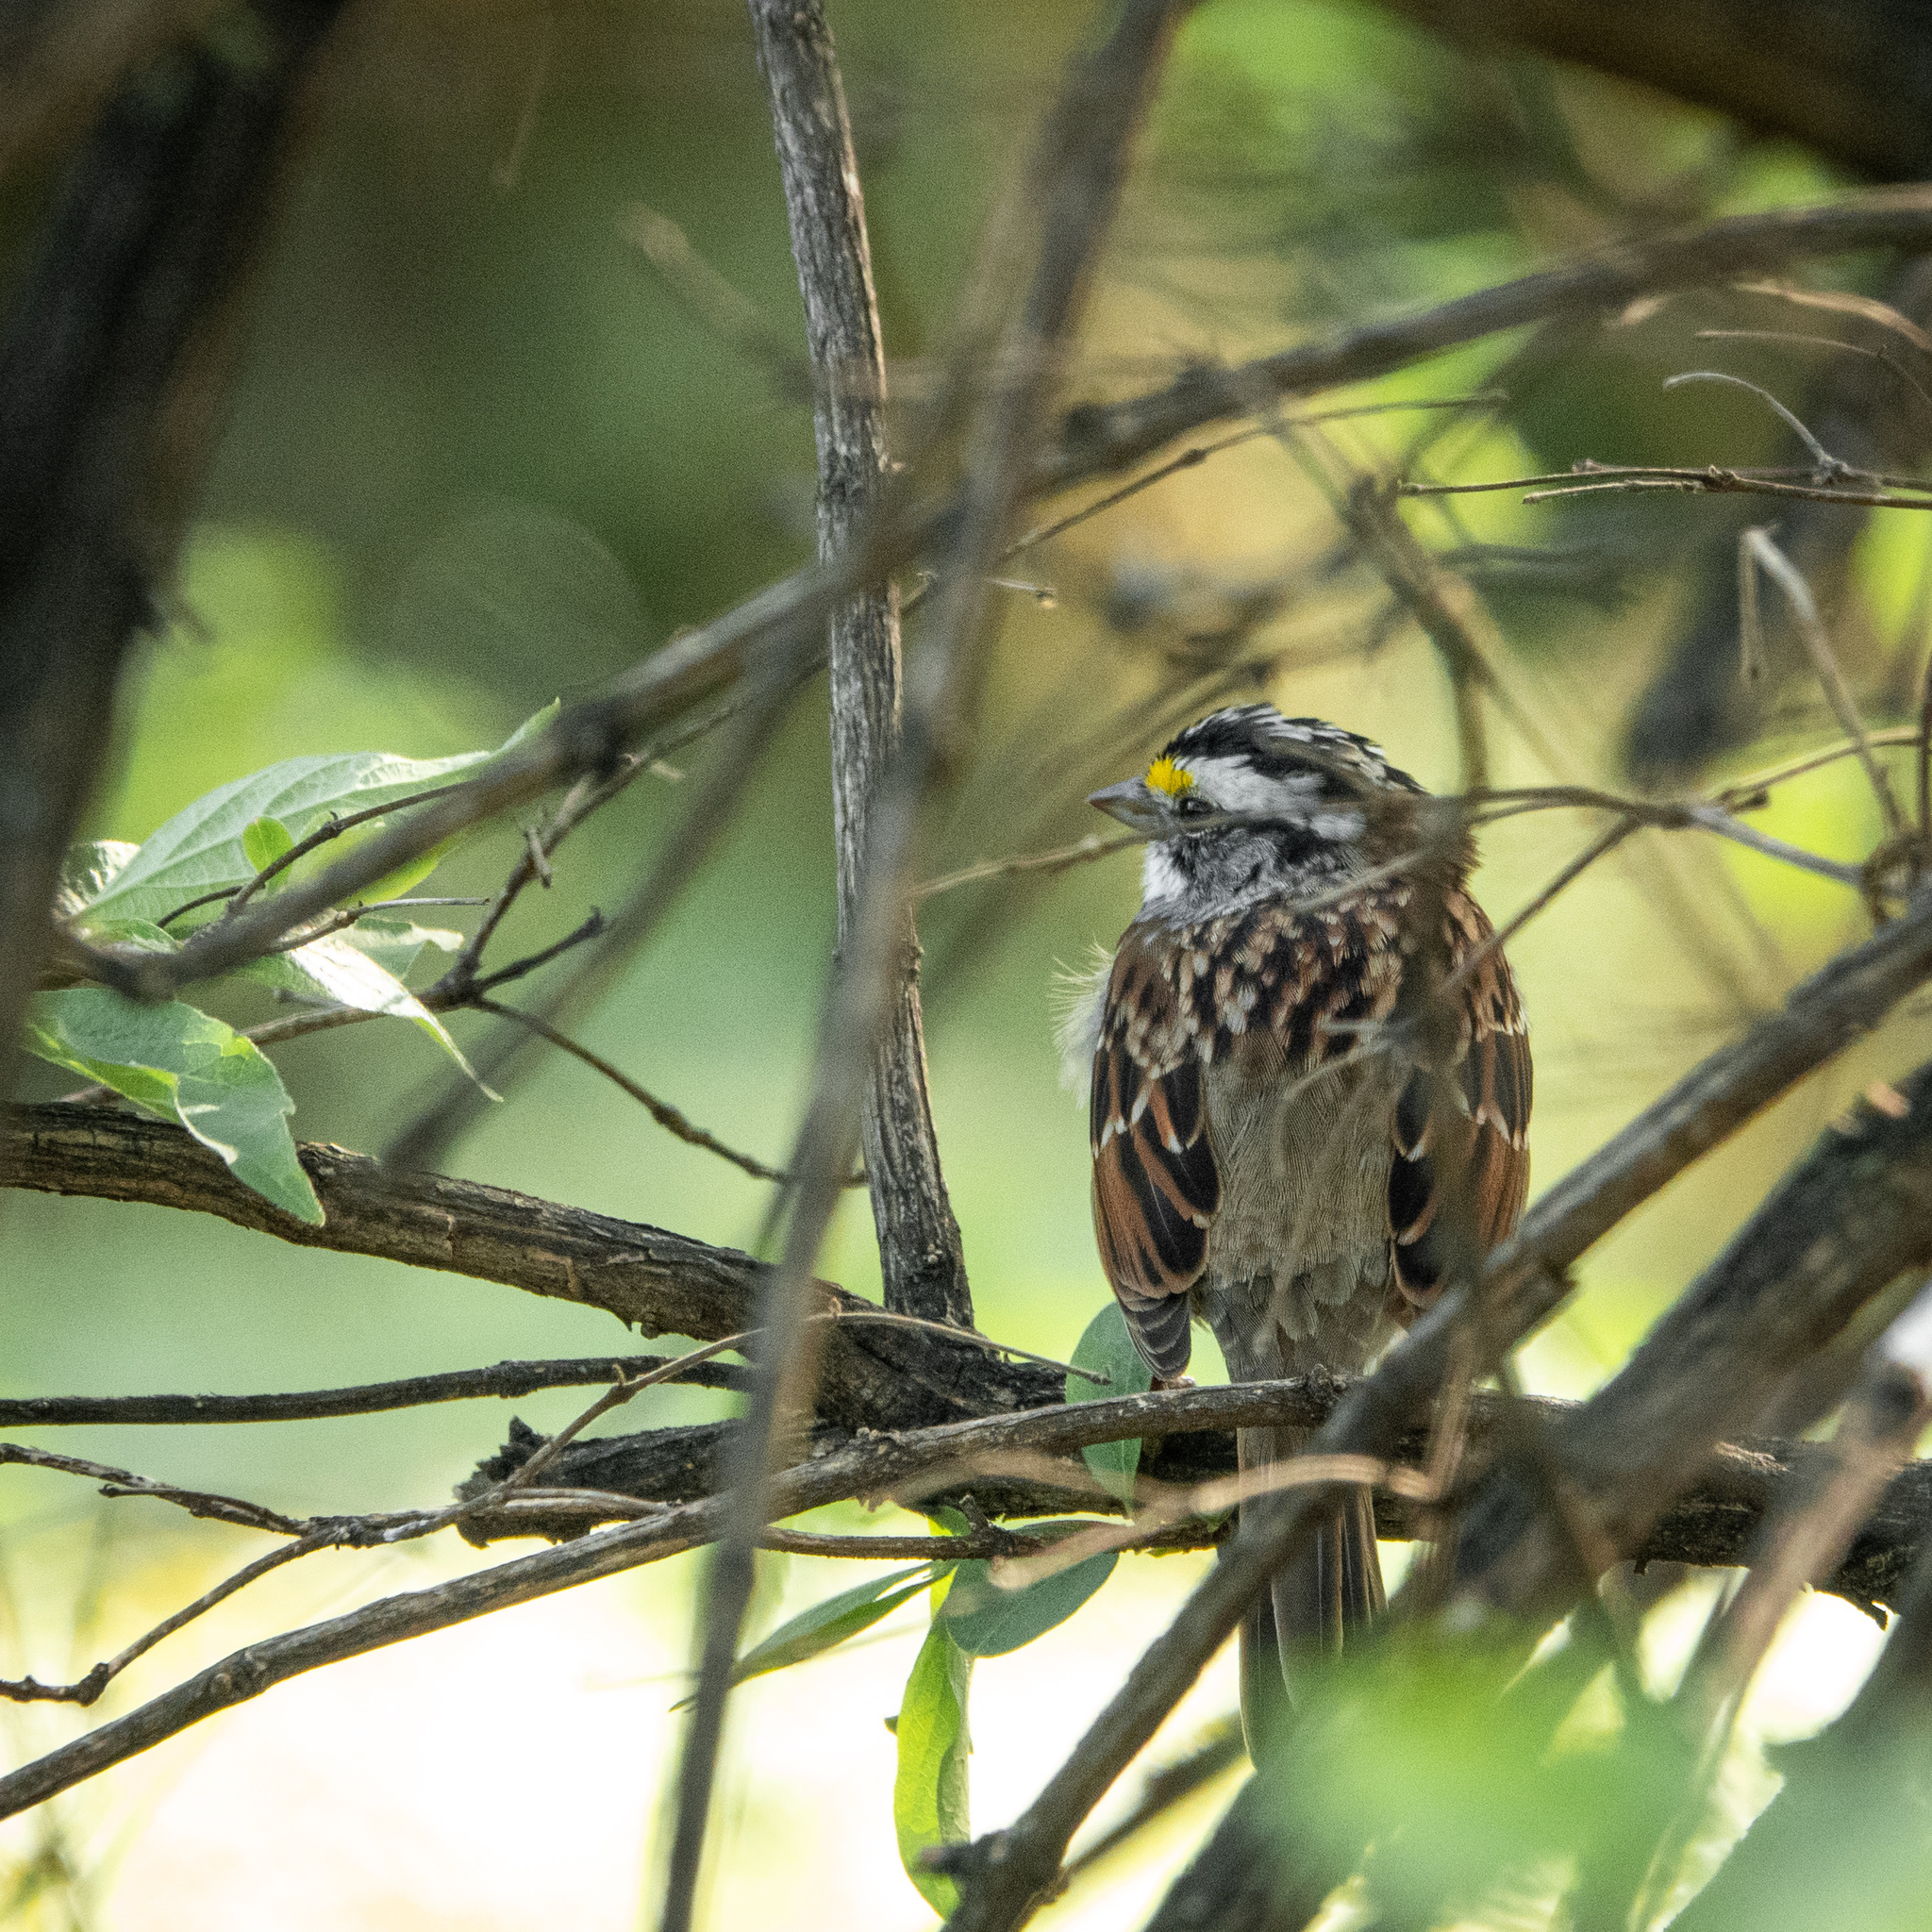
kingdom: Animalia
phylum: Chordata
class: Aves
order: Passeriformes
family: Passerellidae
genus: Zonotrichia
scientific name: Zonotrichia albicollis
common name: White-throated sparrow
